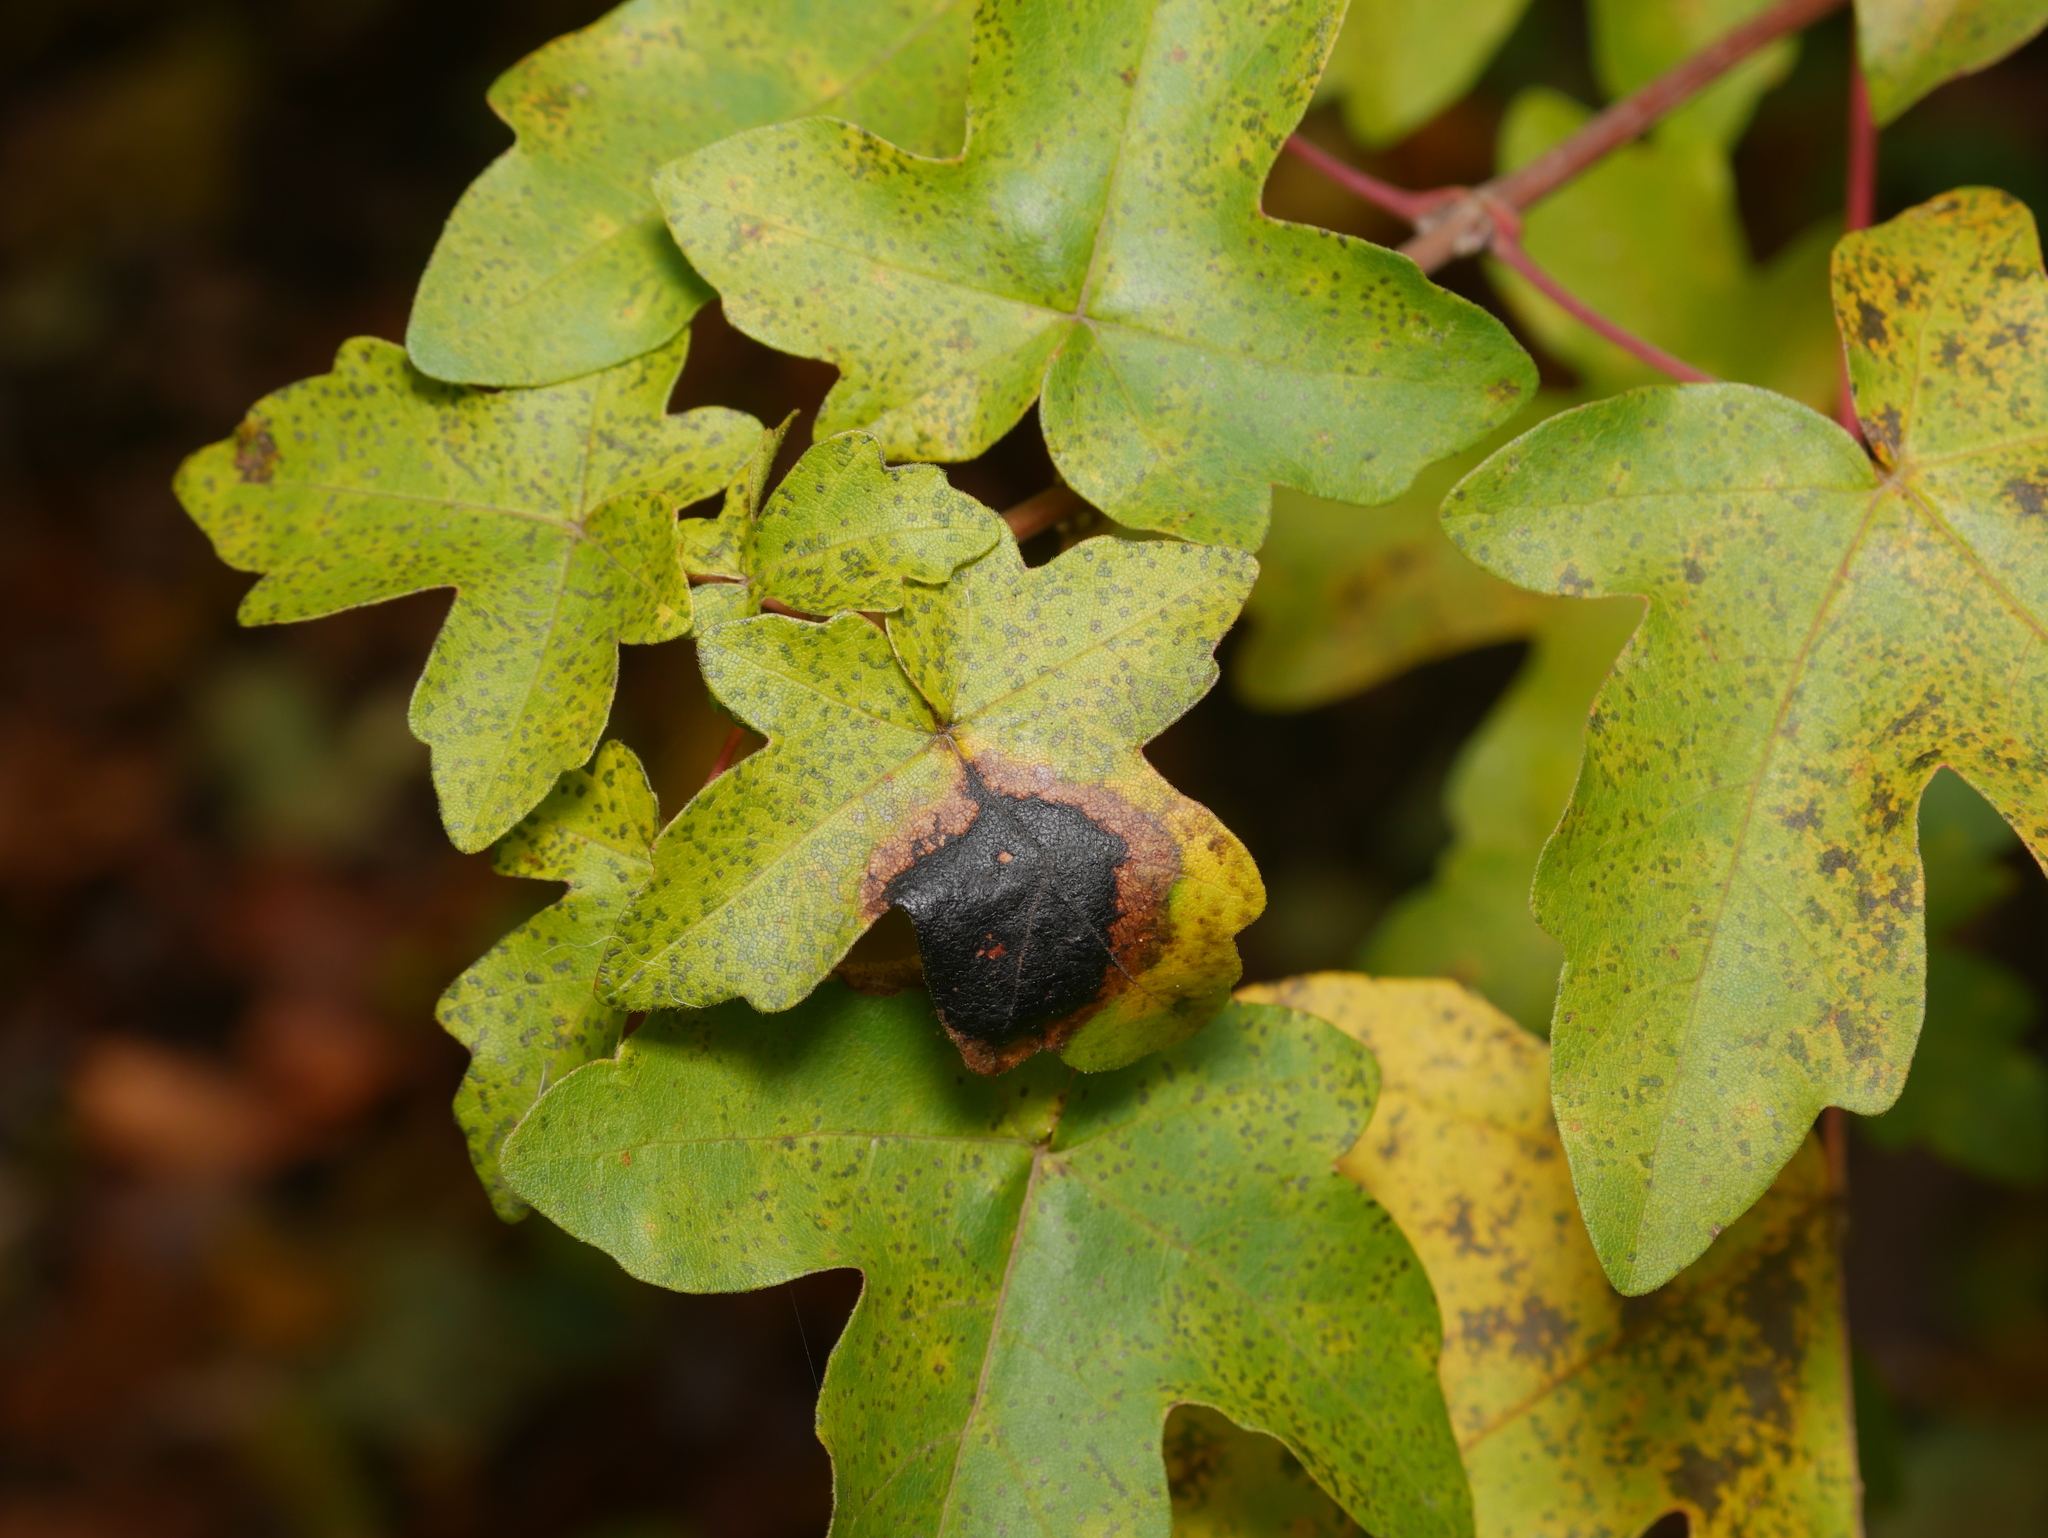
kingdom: Fungi
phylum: Ascomycota
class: Leotiomycetes
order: Rhytismatales
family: Rhytismataceae
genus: Rhytisma
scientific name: Rhytisma acerinum
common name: European tar spot
